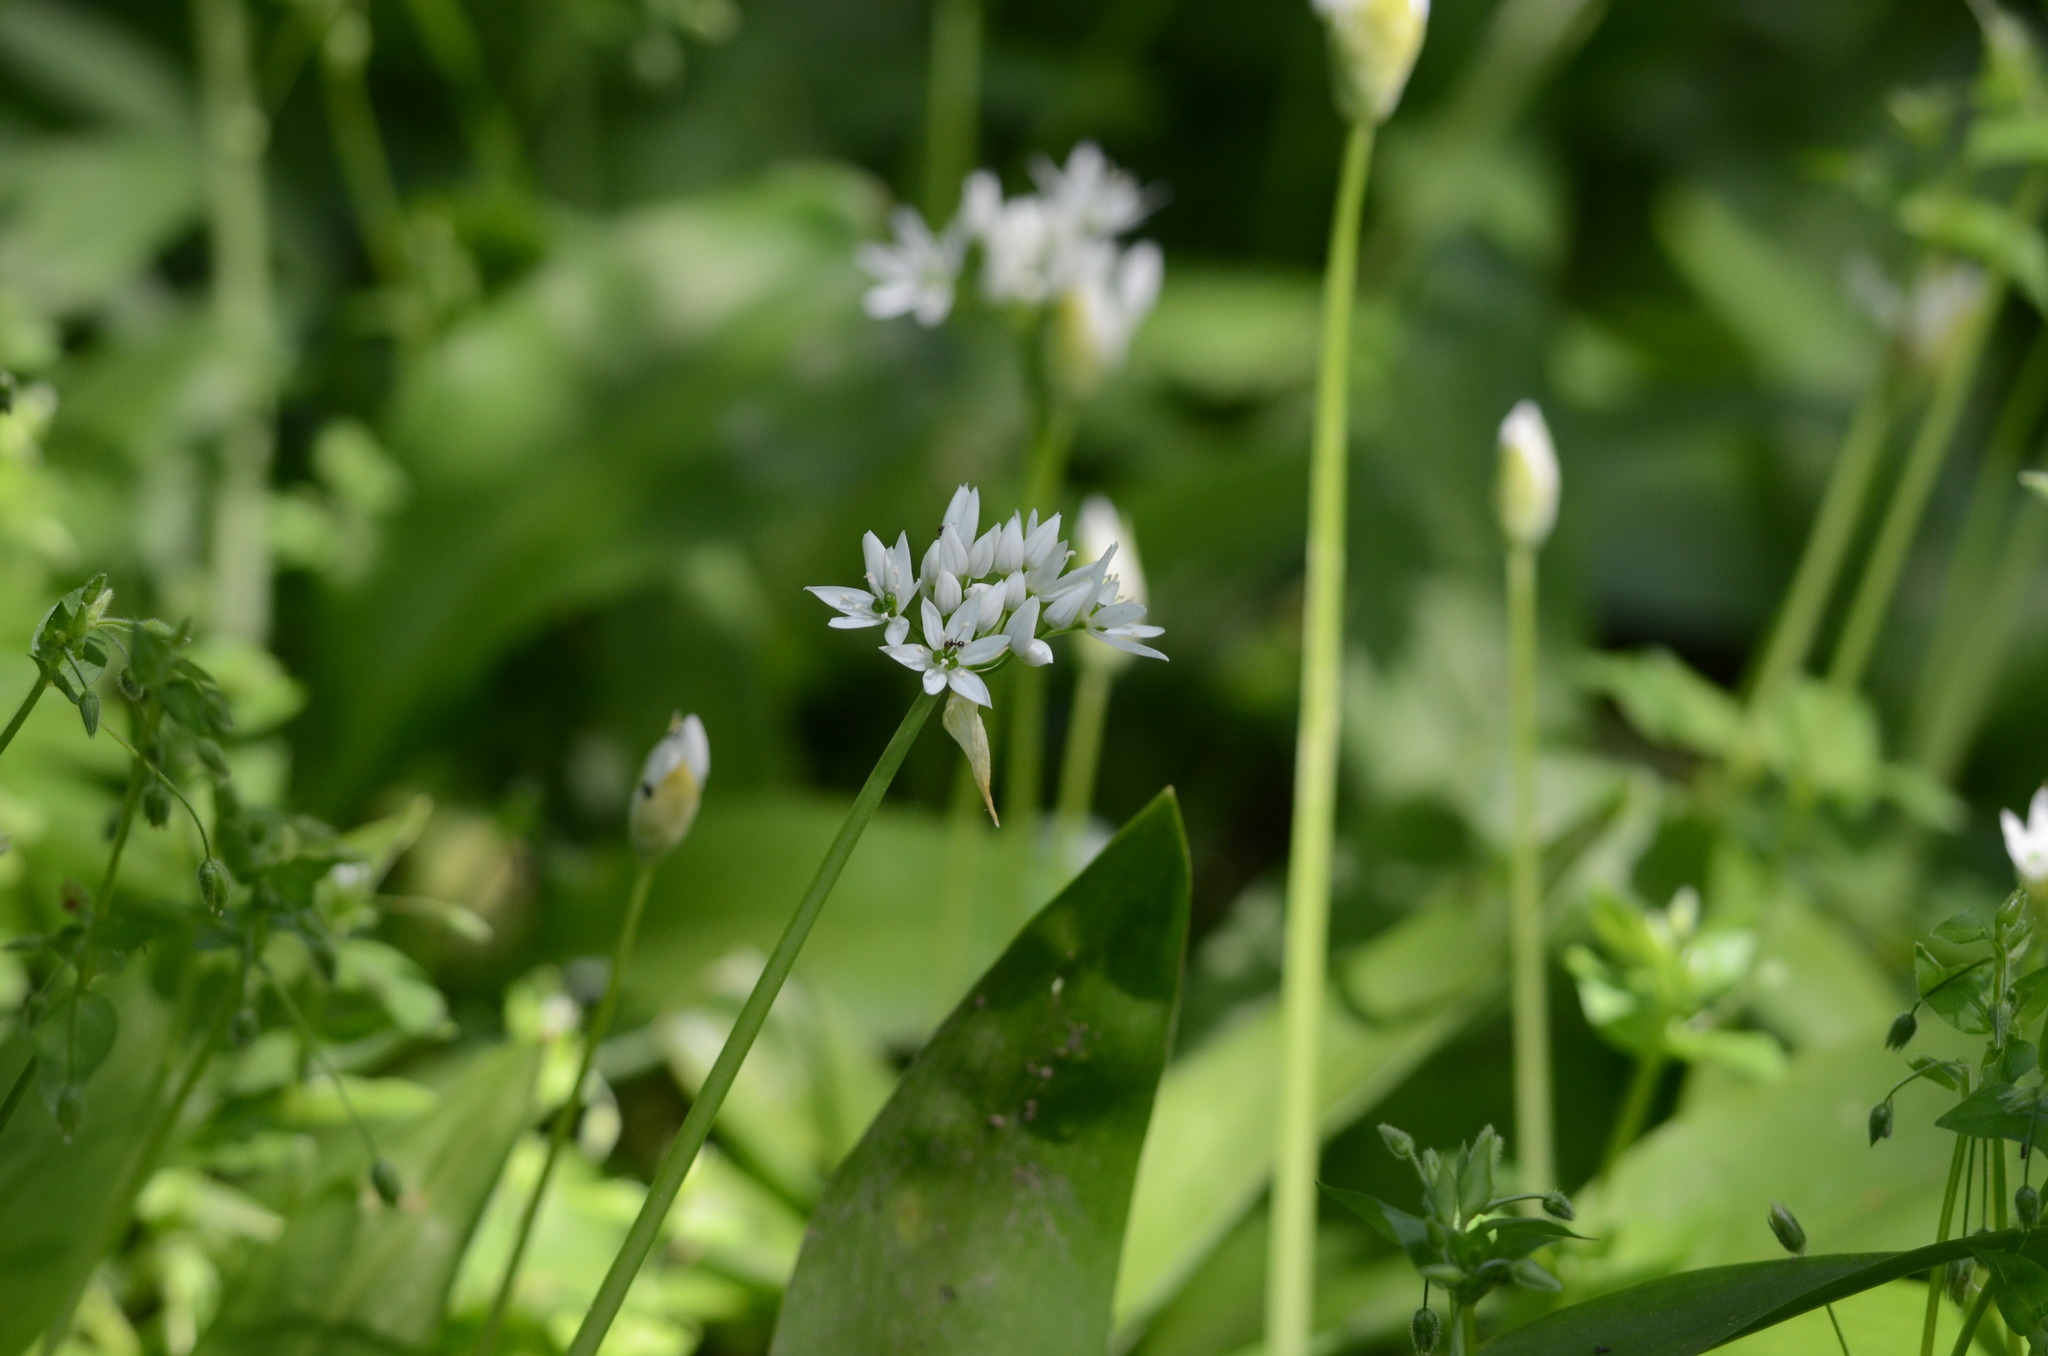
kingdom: Plantae
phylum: Tracheophyta
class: Liliopsida
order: Asparagales
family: Amaryllidaceae
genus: Allium
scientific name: Allium ursinum
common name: Ramsons
